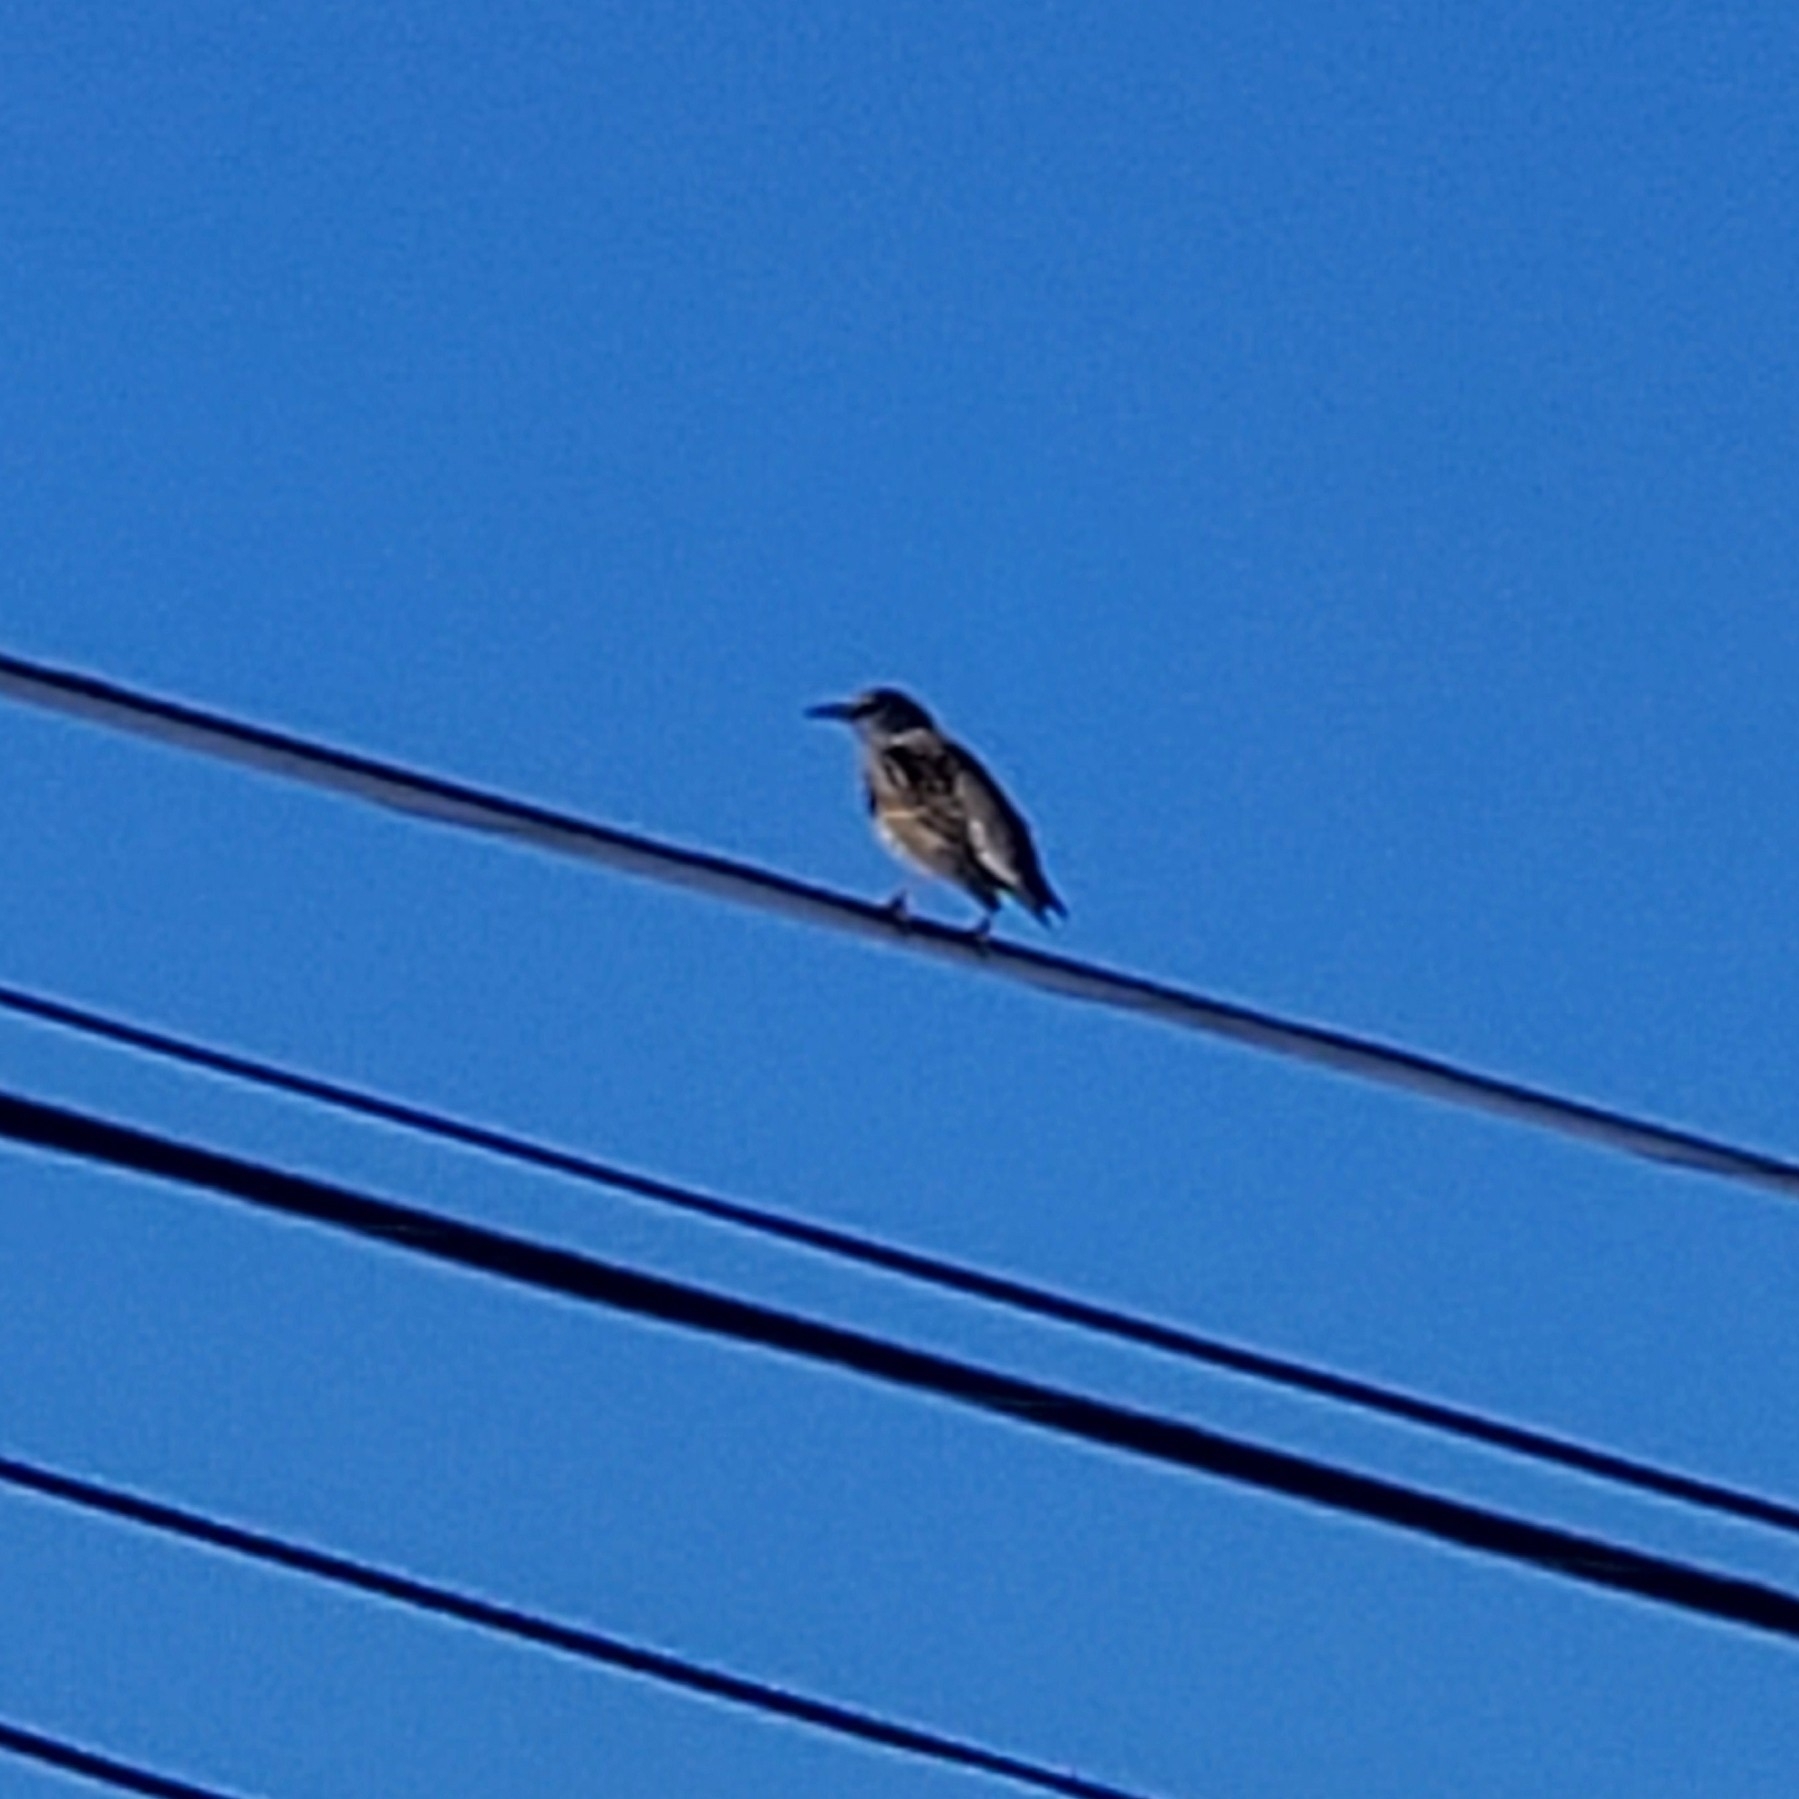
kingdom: Animalia
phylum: Chordata
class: Aves
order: Passeriformes
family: Sturnidae
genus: Sturnus
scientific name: Sturnus vulgaris
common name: Common starling
